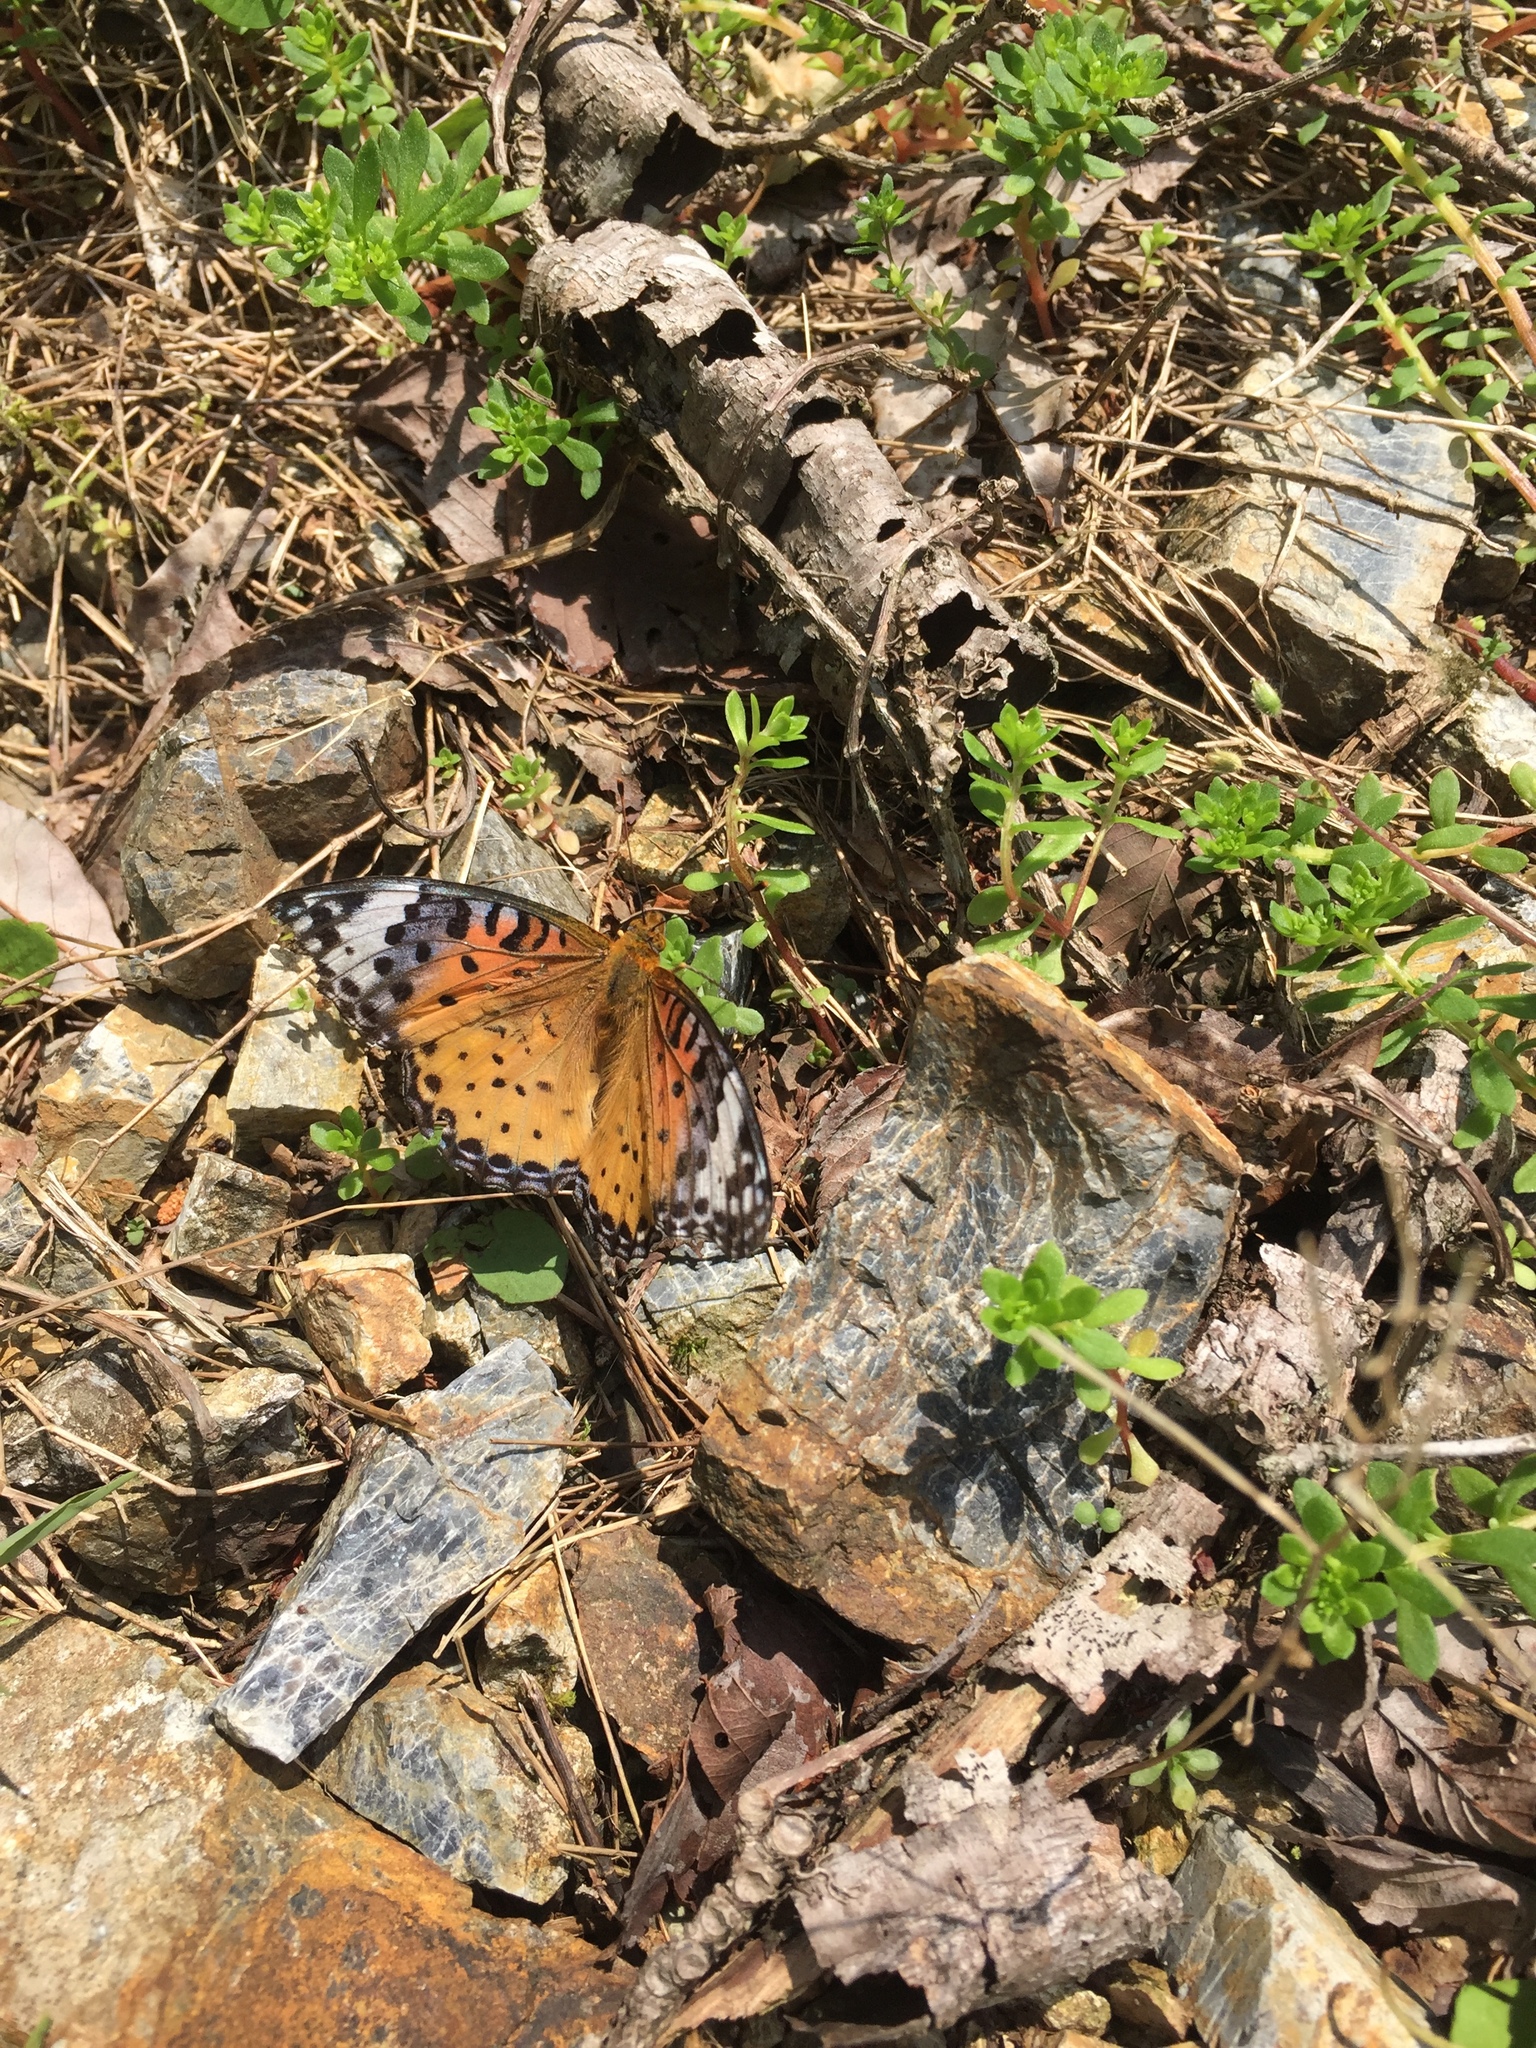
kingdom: Animalia
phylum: Arthropoda
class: Insecta
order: Lepidoptera
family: Nymphalidae
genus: Argynnis
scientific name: Argynnis hyperbius
